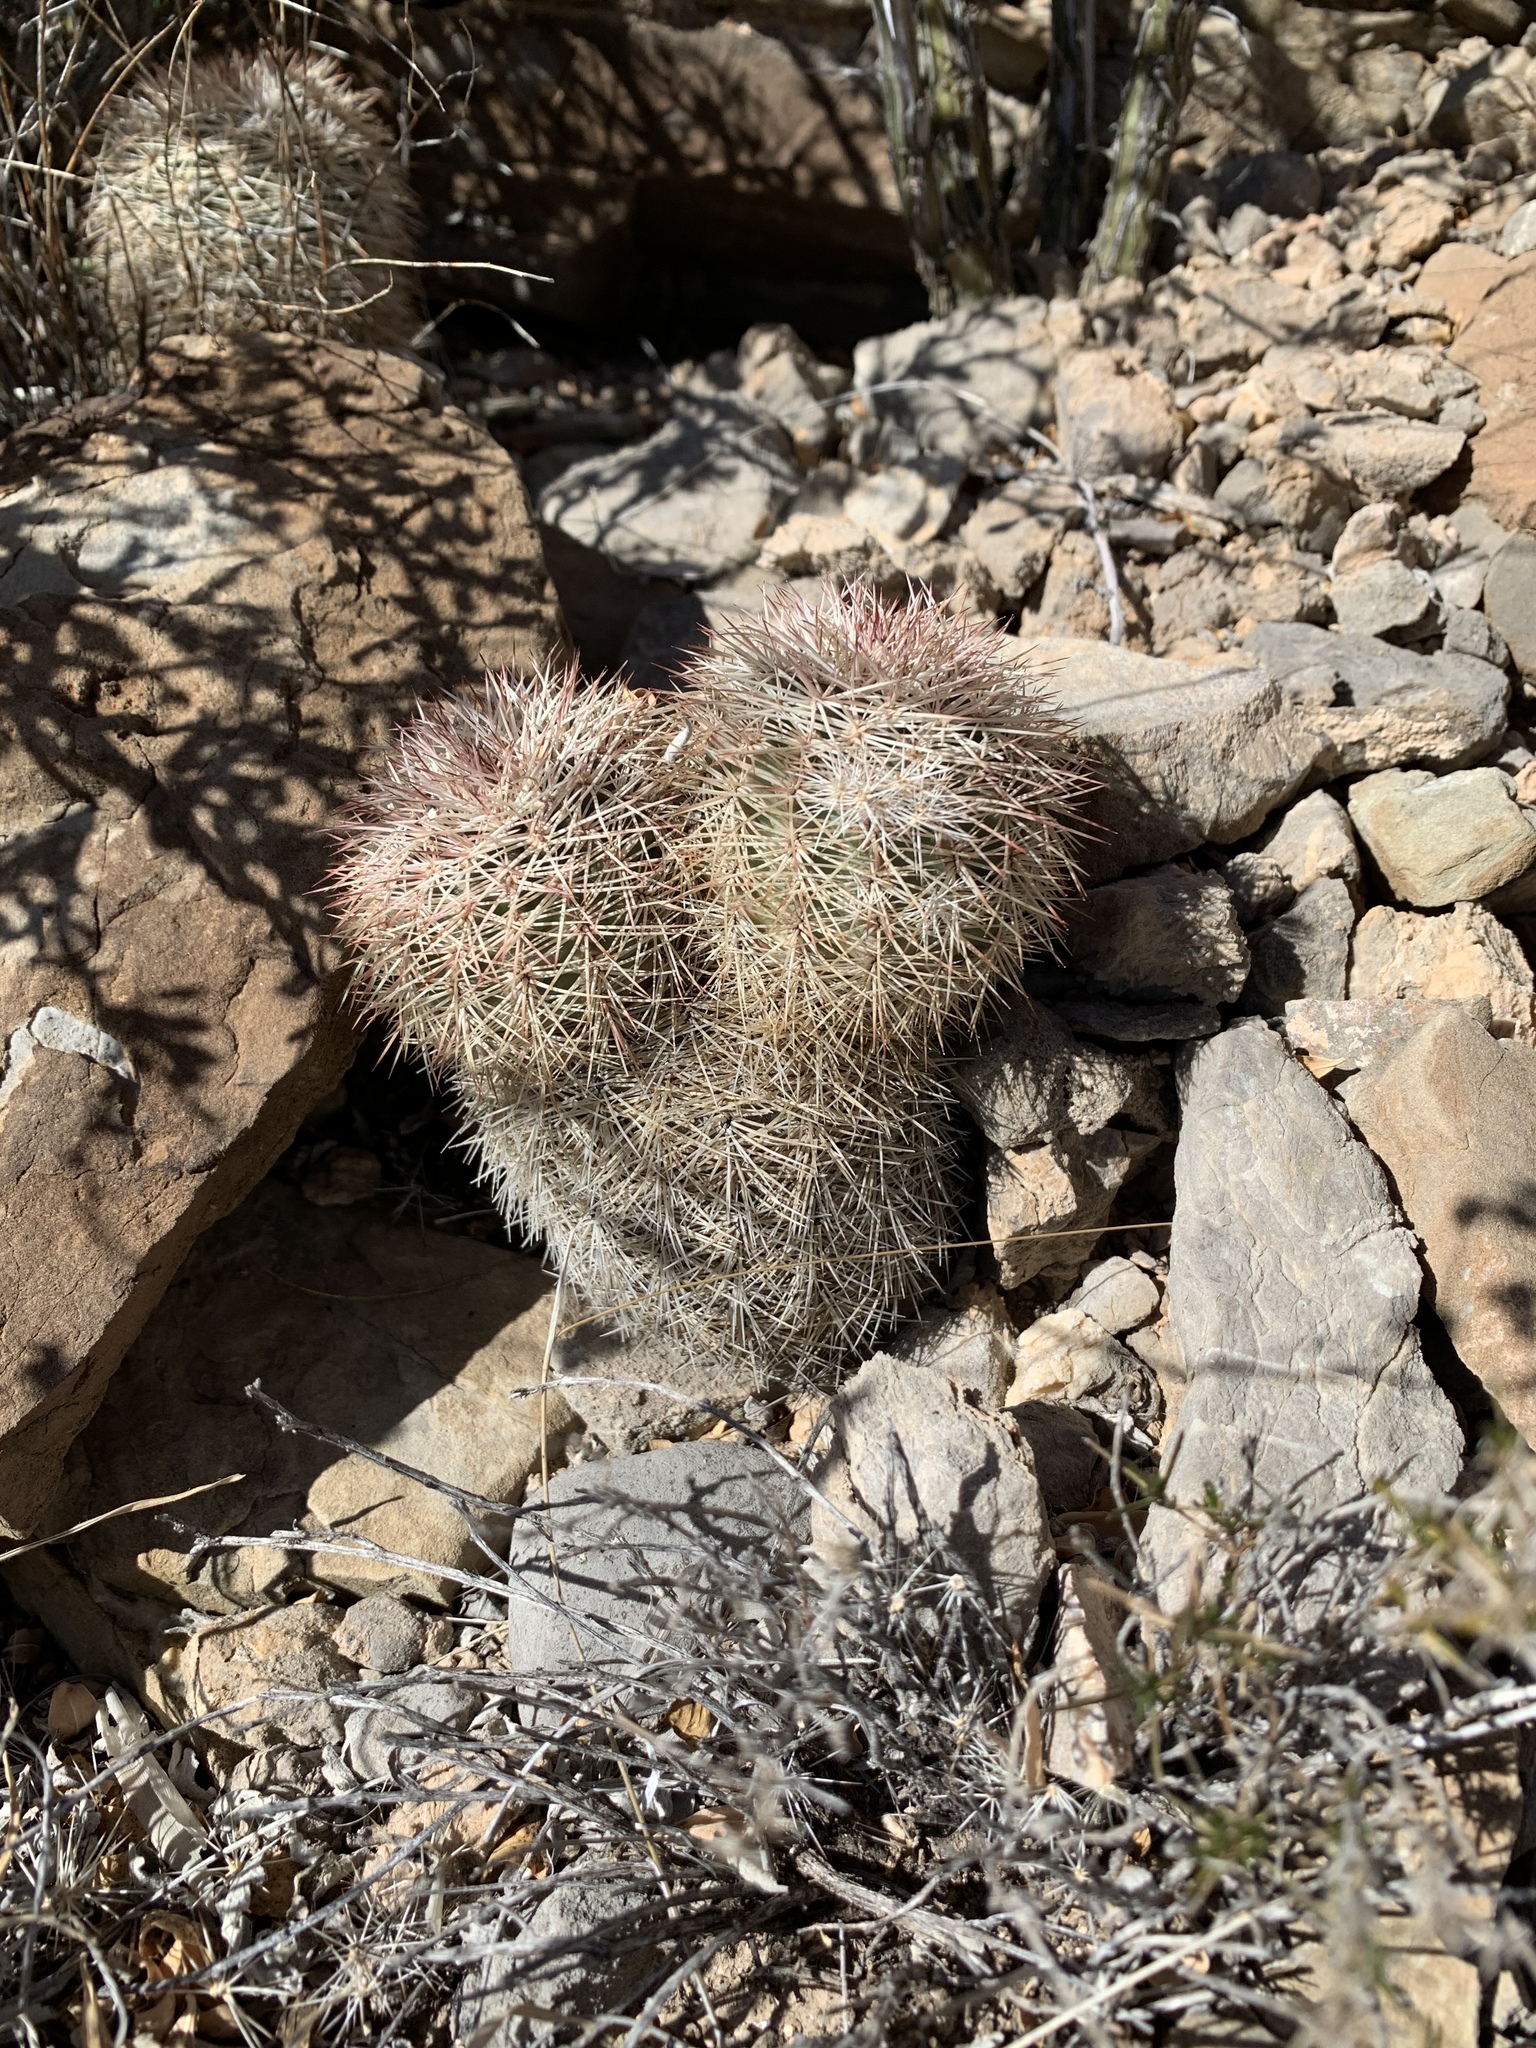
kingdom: Plantae
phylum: Tracheophyta
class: Magnoliopsida
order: Caryophyllales
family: Cactaceae
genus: Echinocereus
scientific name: Echinocereus dasyacanthus
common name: Spiny hedgehog cactus
